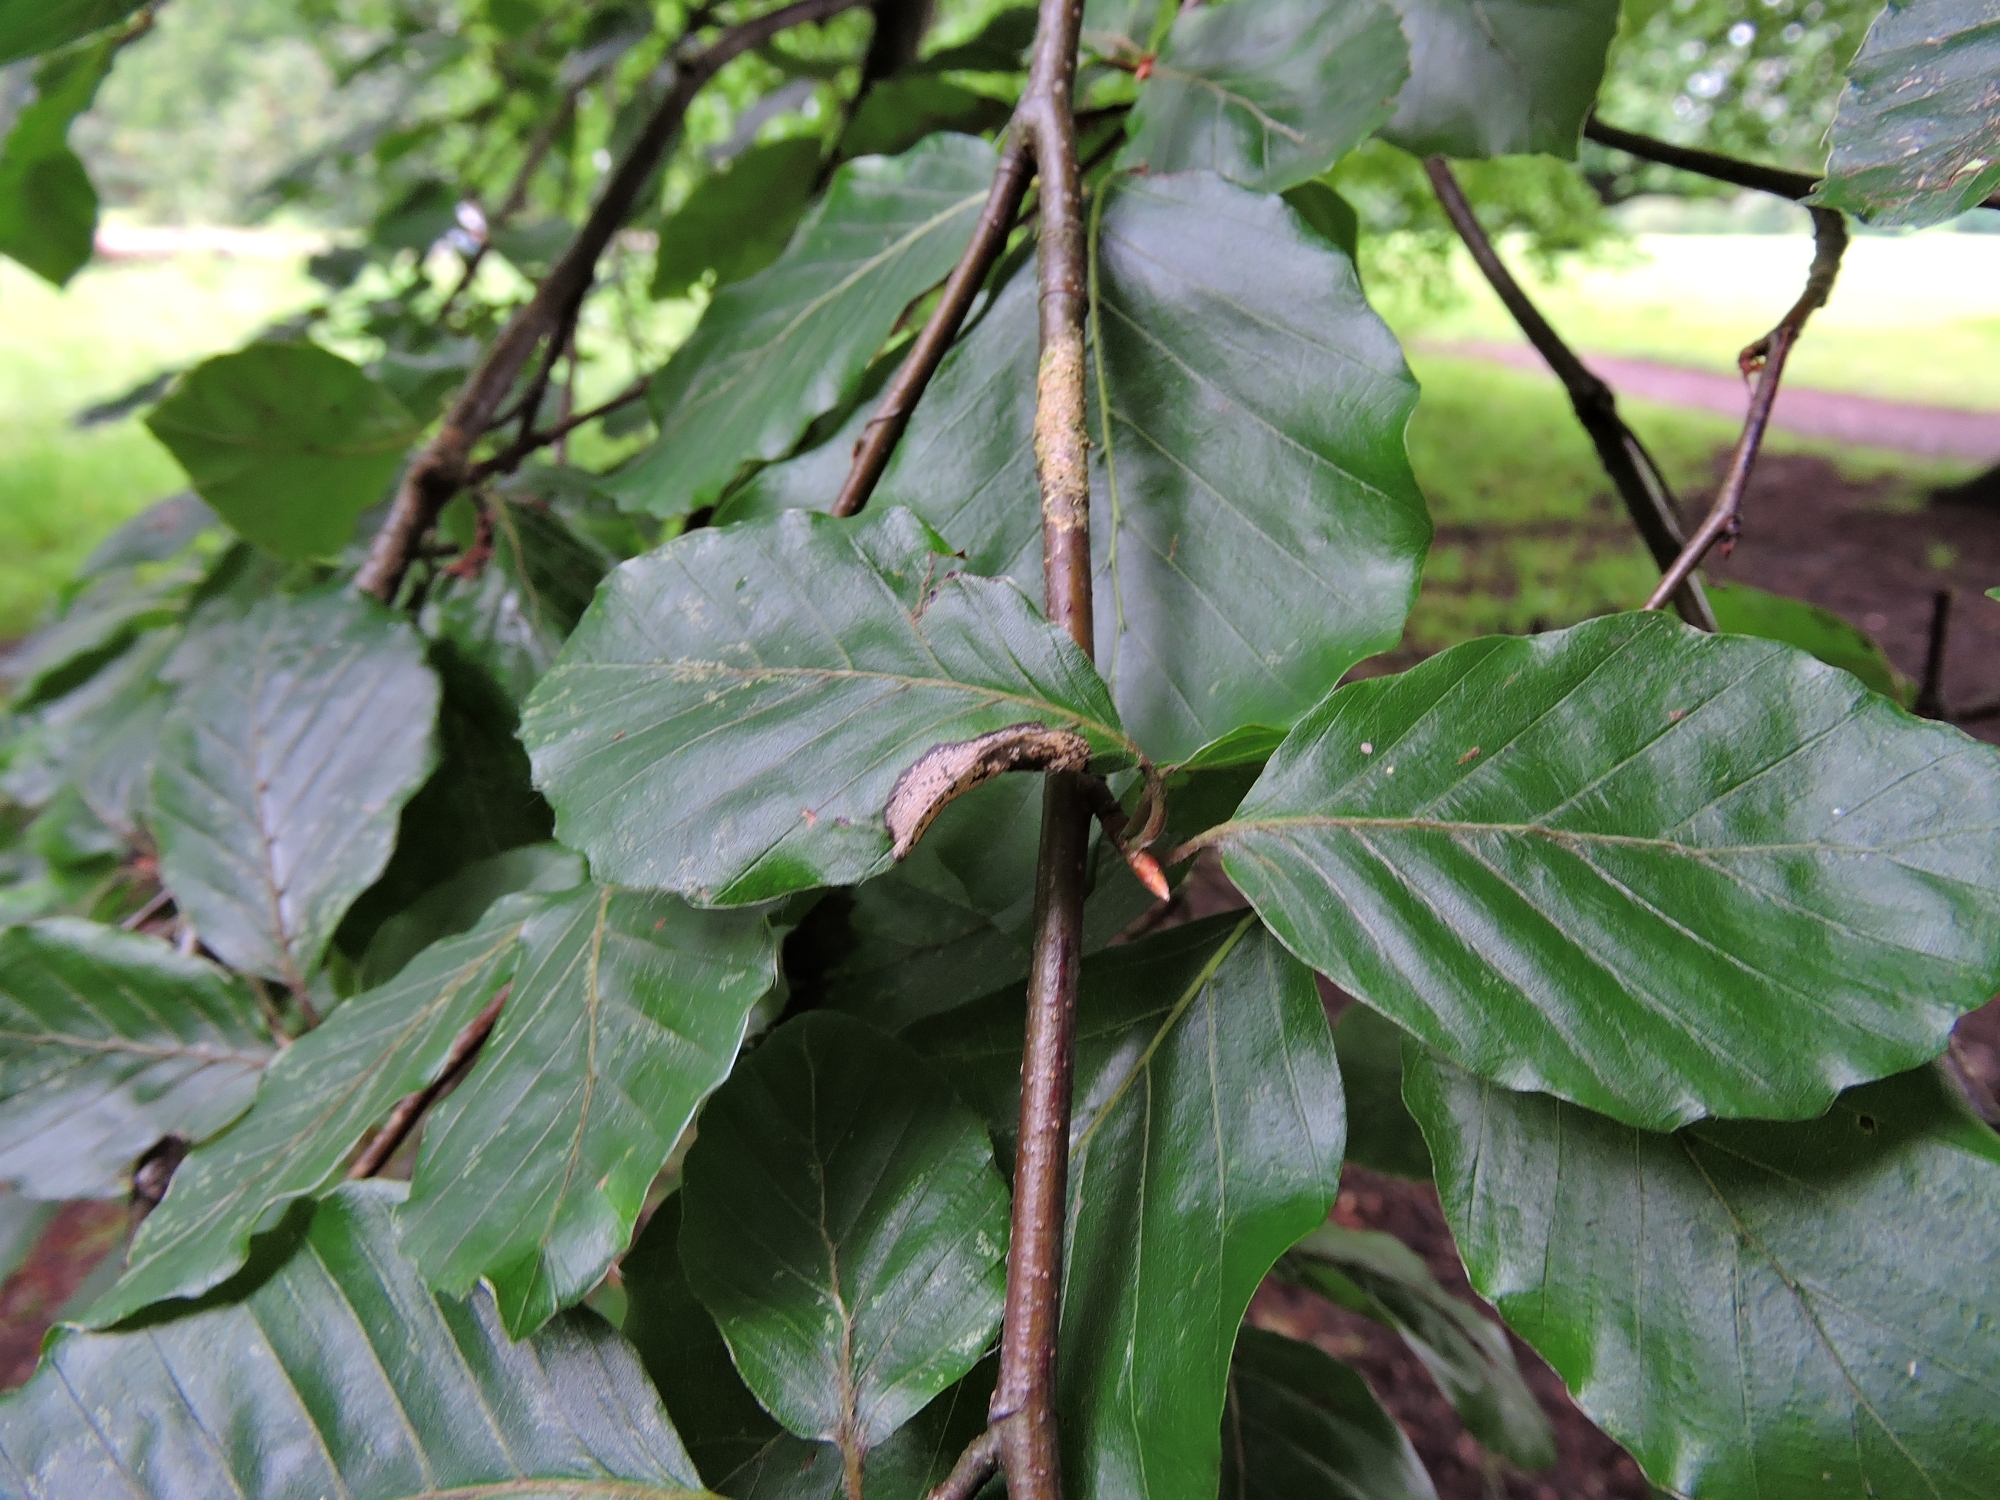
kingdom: Animalia
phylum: Arthropoda
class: Insecta
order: Lepidoptera
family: Gracillariidae
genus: Phyllonorycter
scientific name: Phyllonorycter maestingella
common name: Beech midget
